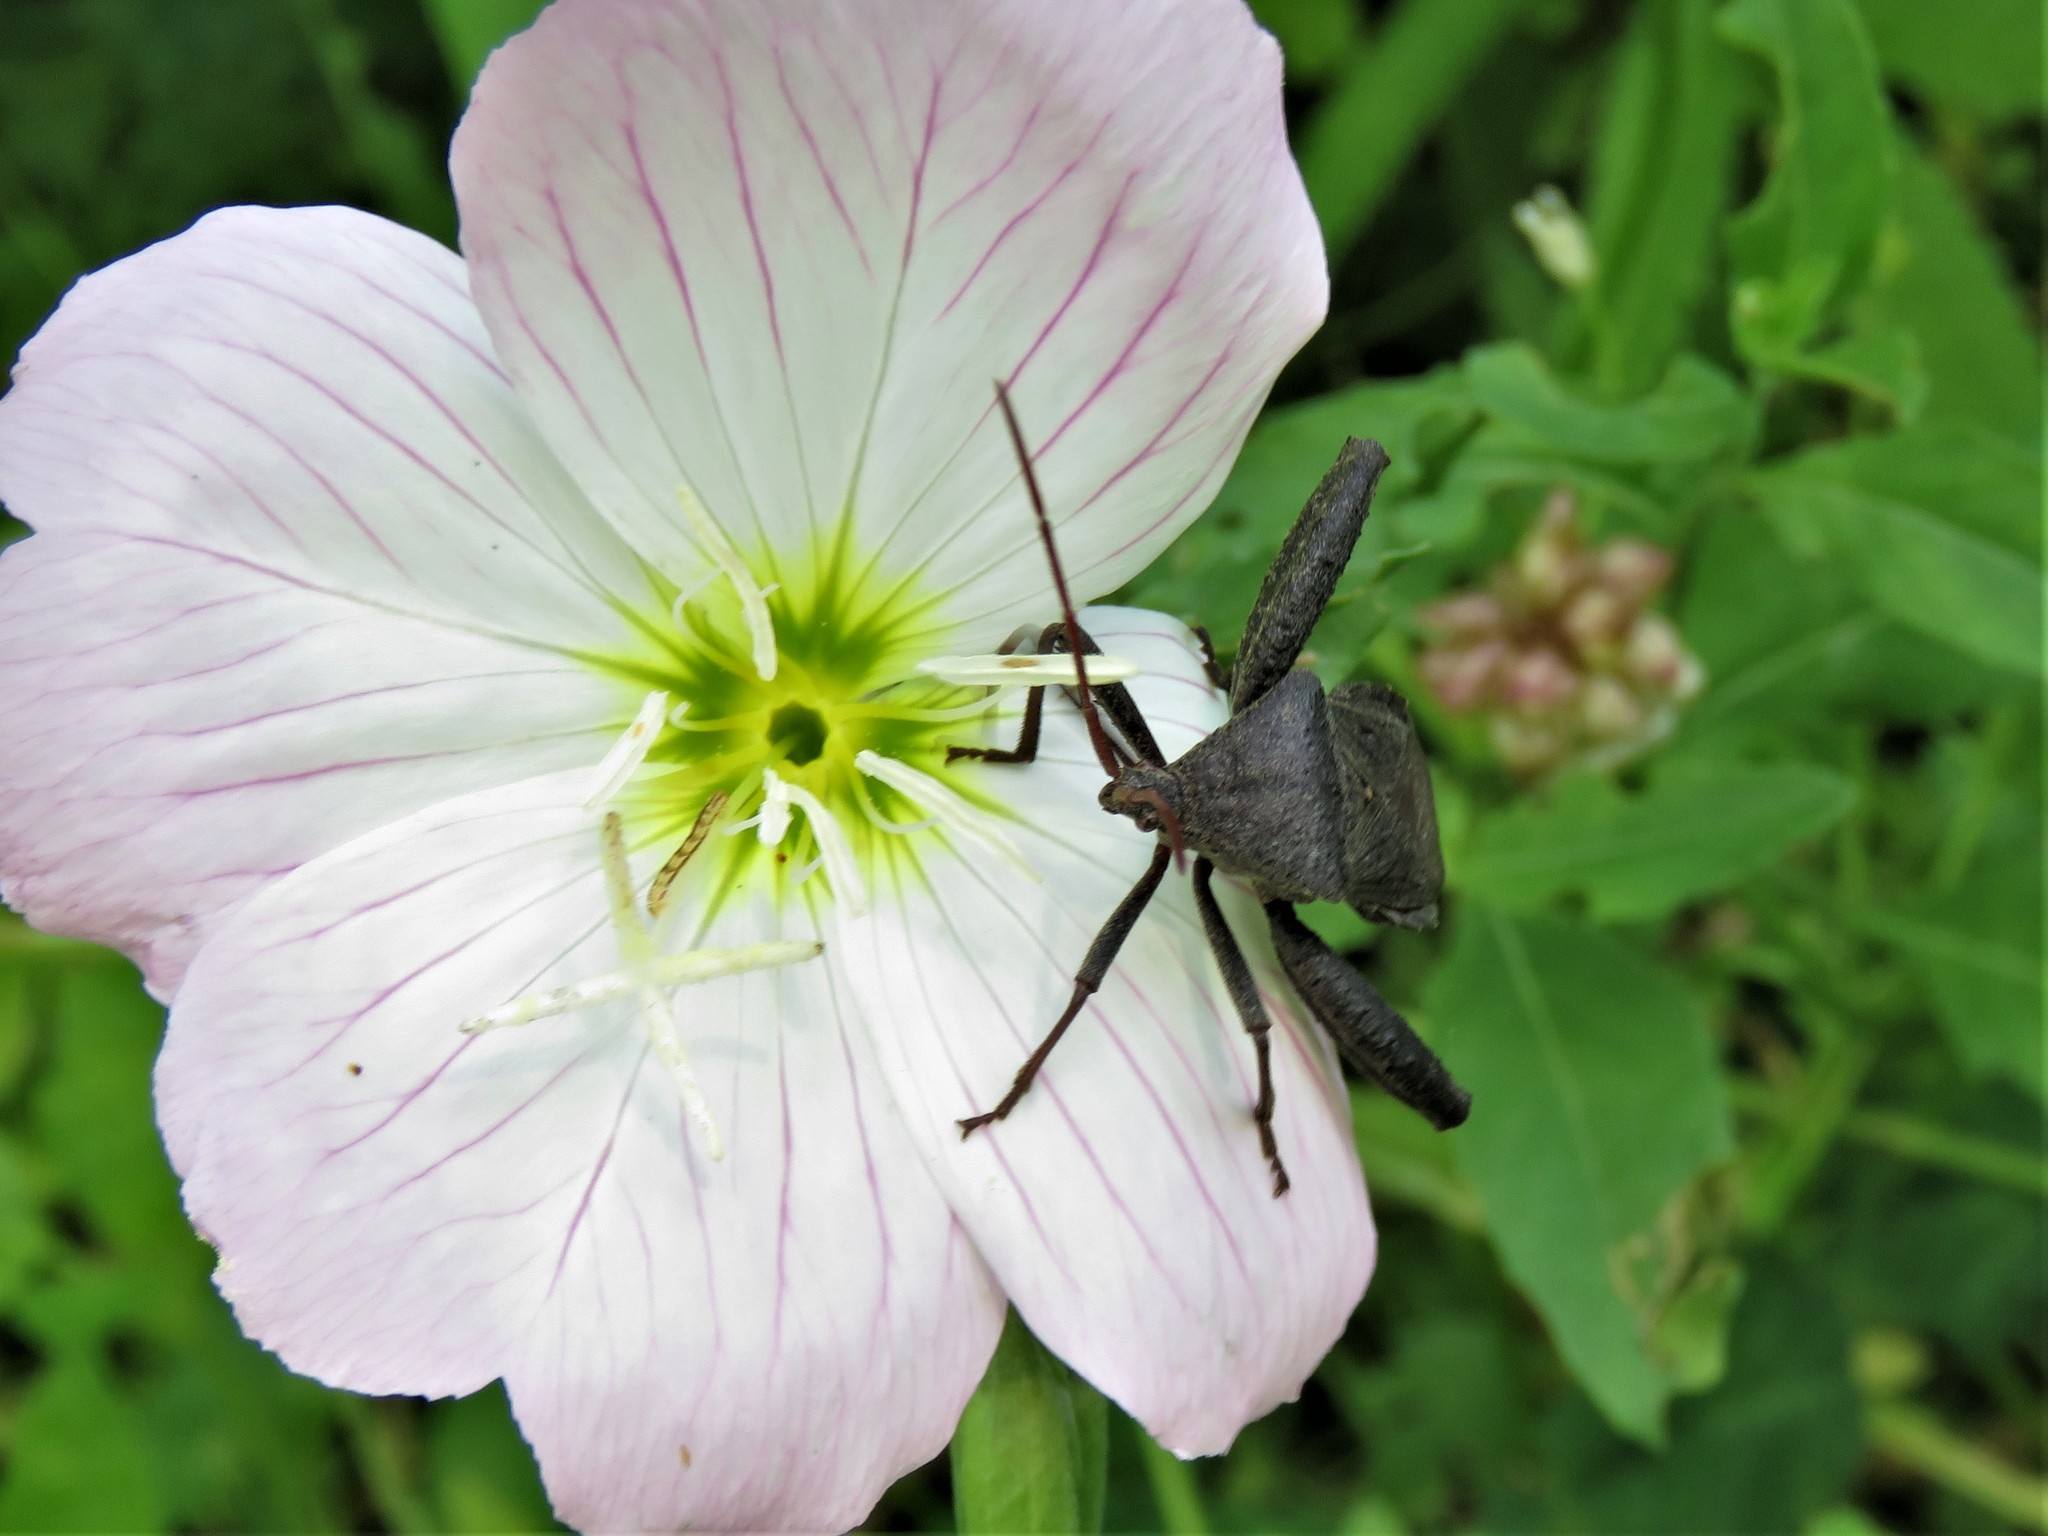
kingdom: Animalia
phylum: Arthropoda
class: Insecta
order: Hemiptera
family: Coreidae
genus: Acanthocephala
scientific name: Acanthocephala femorata
